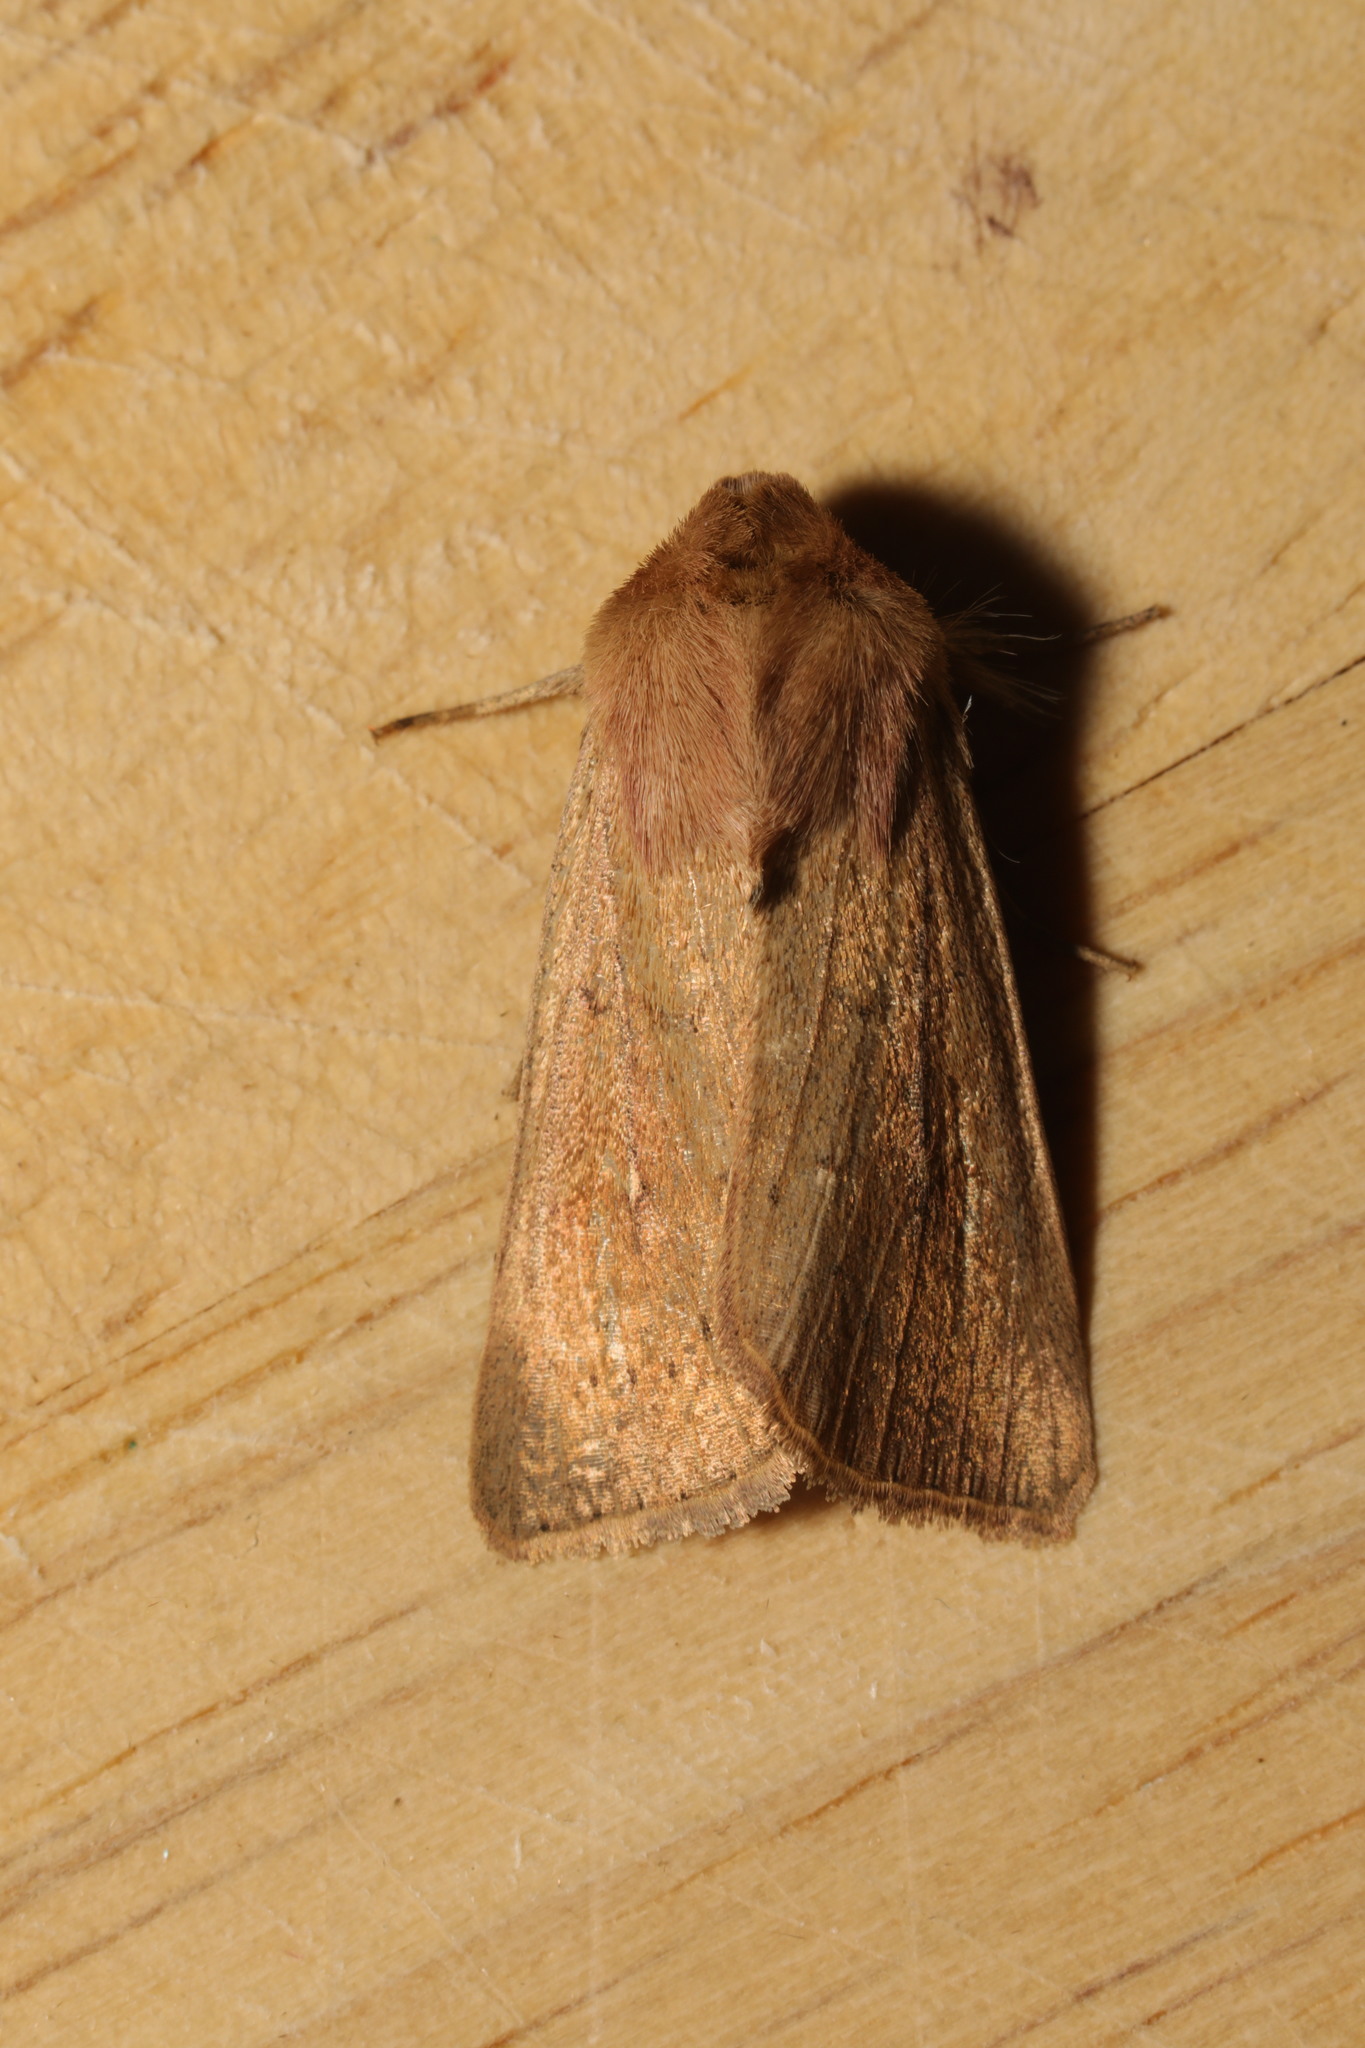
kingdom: Animalia
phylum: Arthropoda
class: Insecta
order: Lepidoptera
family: Noctuidae
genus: Mythimna
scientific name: Mythimna ferrago
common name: Clay
